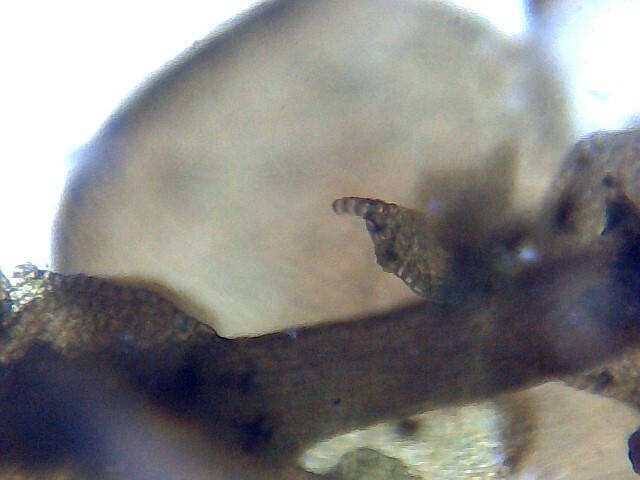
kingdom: Plantae
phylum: Marchantiophyta
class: Jungermanniopsida
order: Porellales
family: Frullaniaceae
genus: Frullania
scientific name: Frullania dilatata
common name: Dilated scalewort
